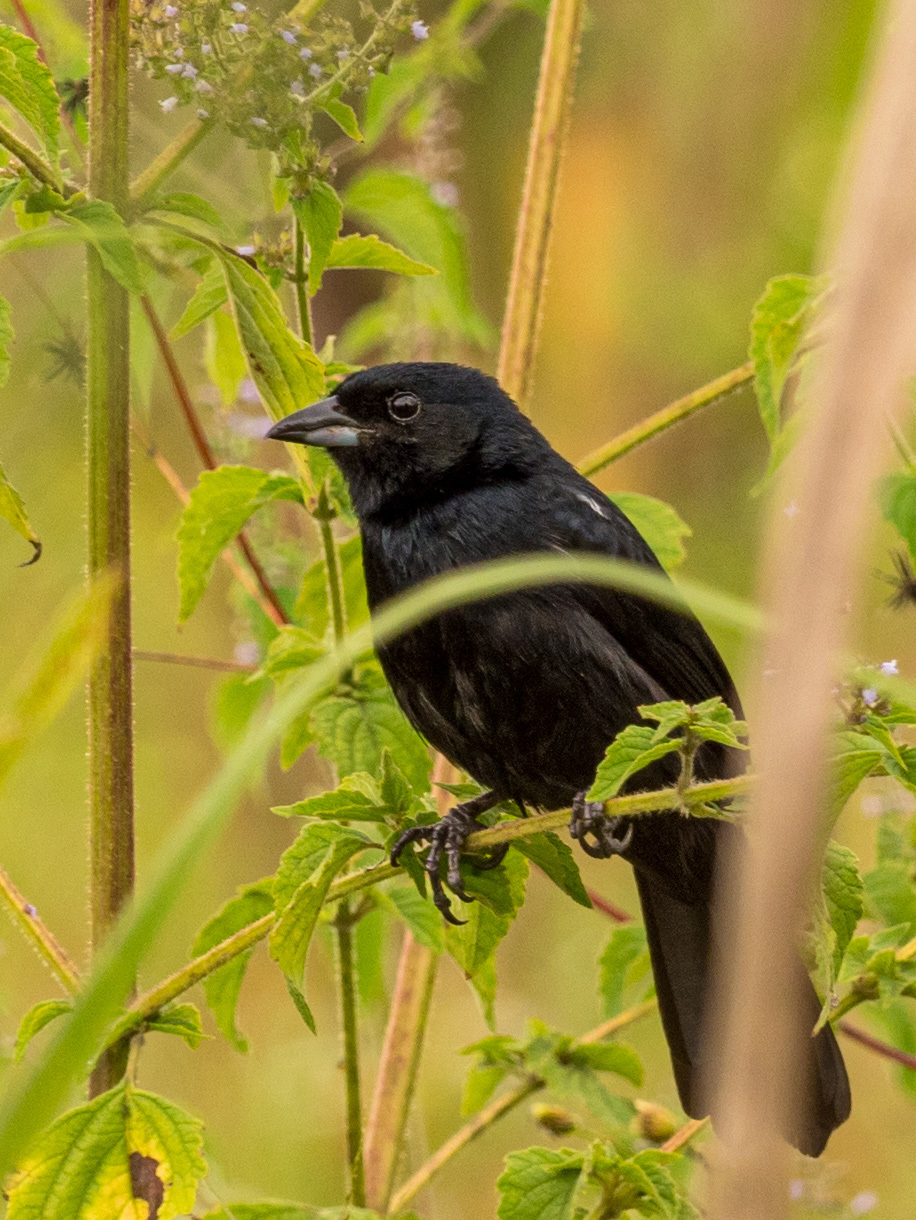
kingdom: Animalia
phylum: Chordata
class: Aves
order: Passeriformes
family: Thraupidae
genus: Tachyphonus
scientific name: Tachyphonus rufus
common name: White-lined tanager
